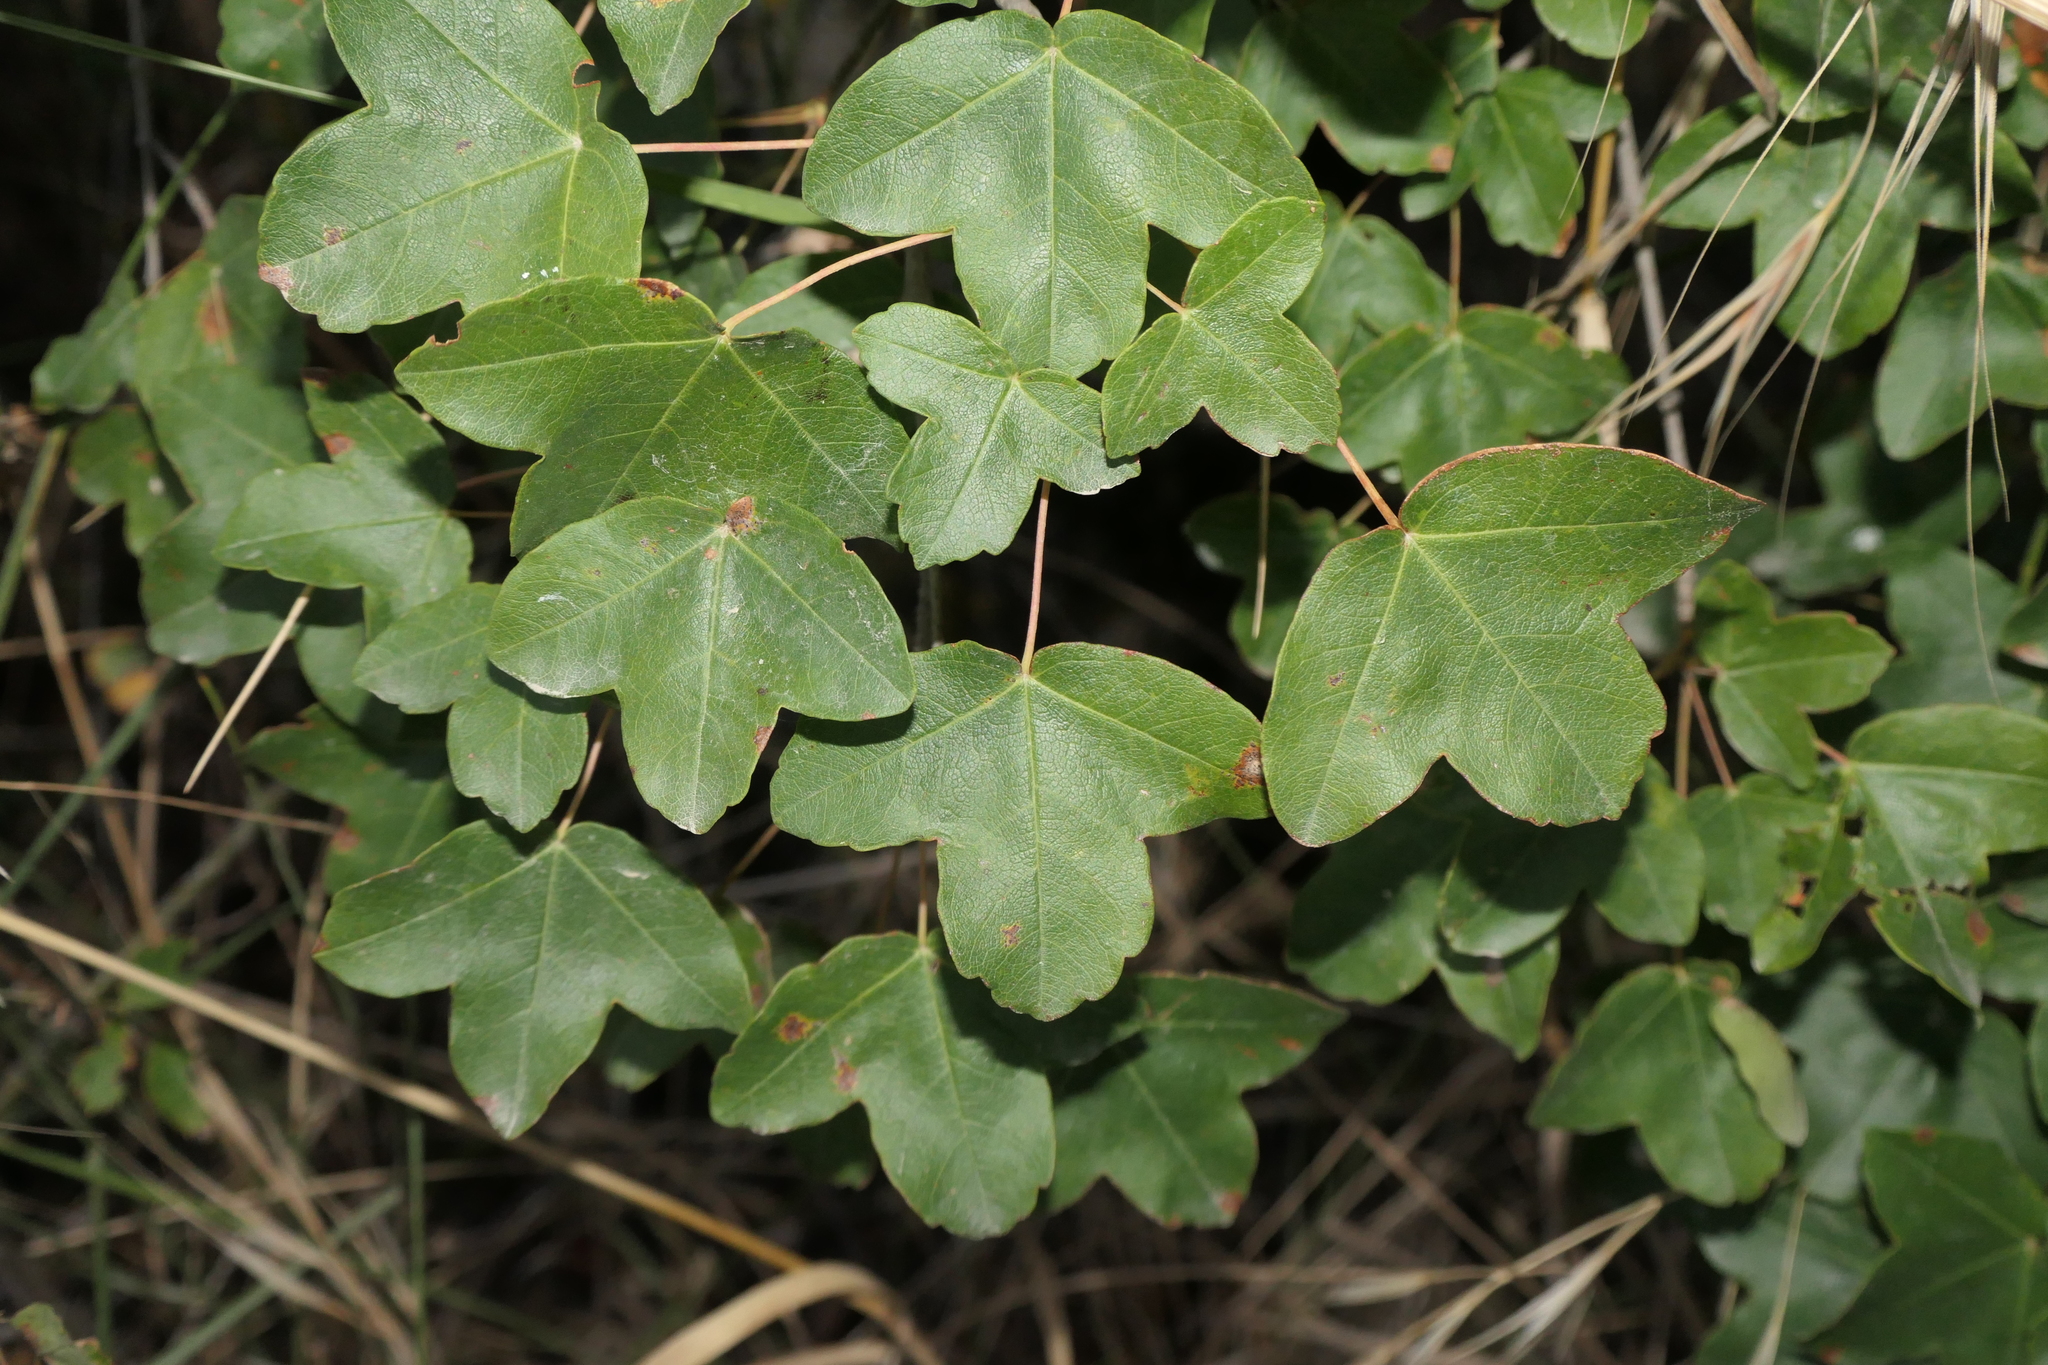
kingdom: Plantae
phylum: Tracheophyta
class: Magnoliopsida
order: Sapindales
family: Sapindaceae
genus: Acer
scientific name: Acer monspessulanum
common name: Montpellier maple
